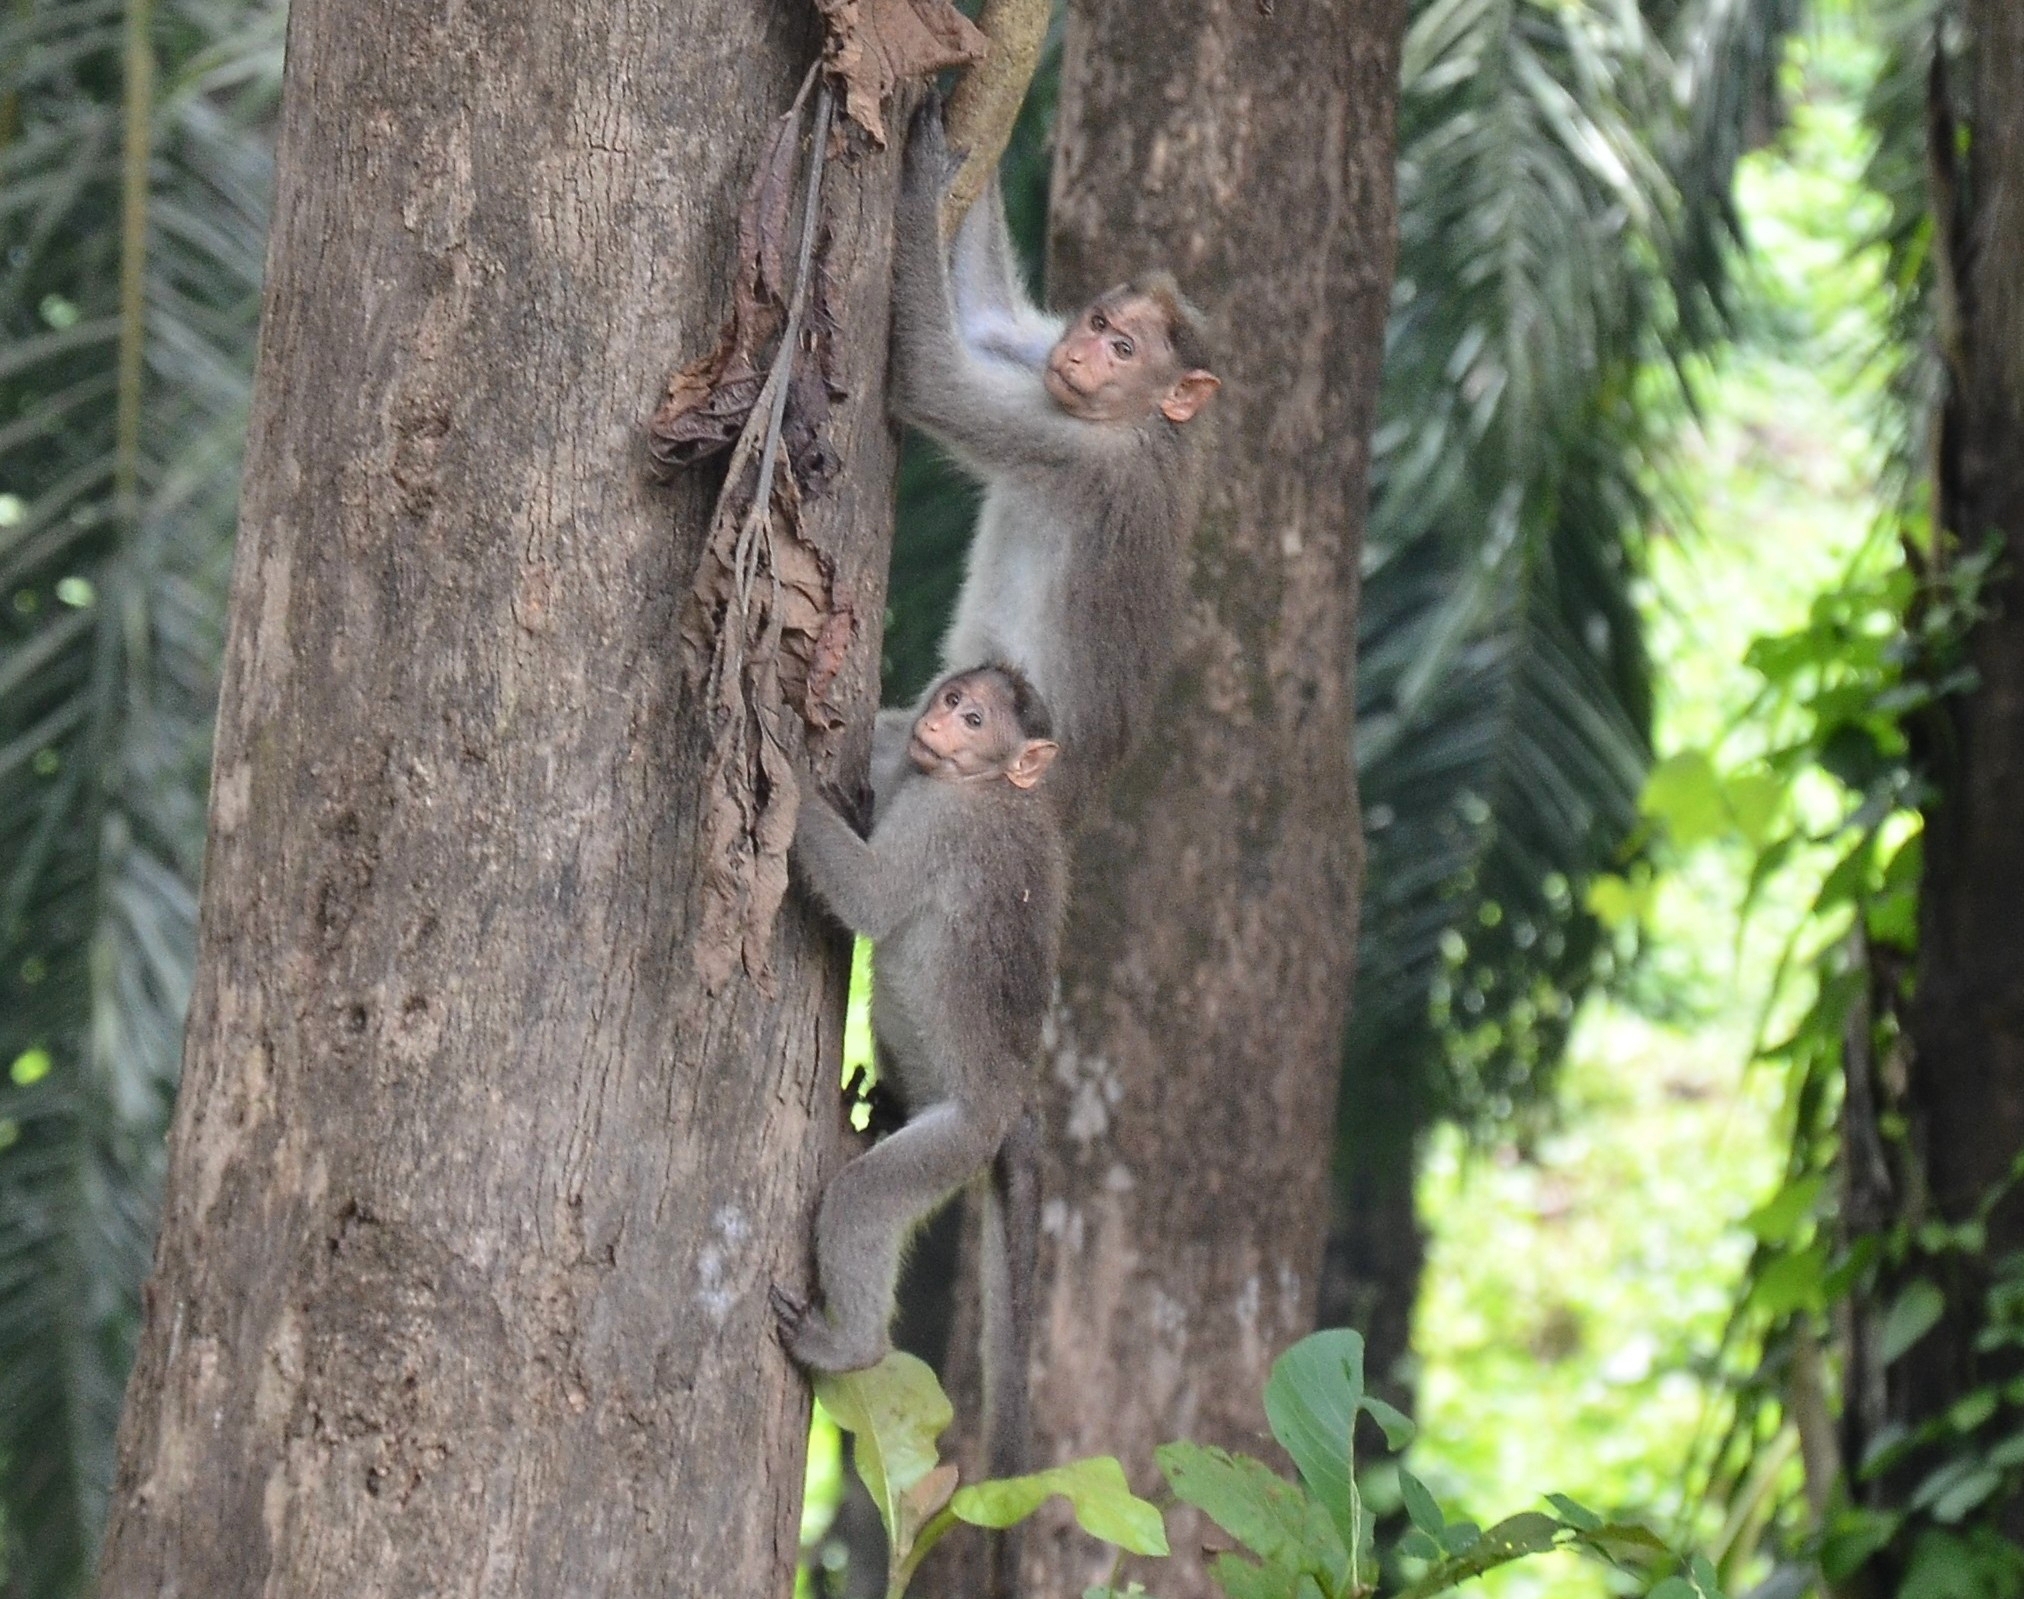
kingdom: Animalia
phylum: Chordata
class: Mammalia
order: Primates
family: Cercopithecidae
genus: Macaca
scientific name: Macaca radiata
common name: Bonnet macaque
